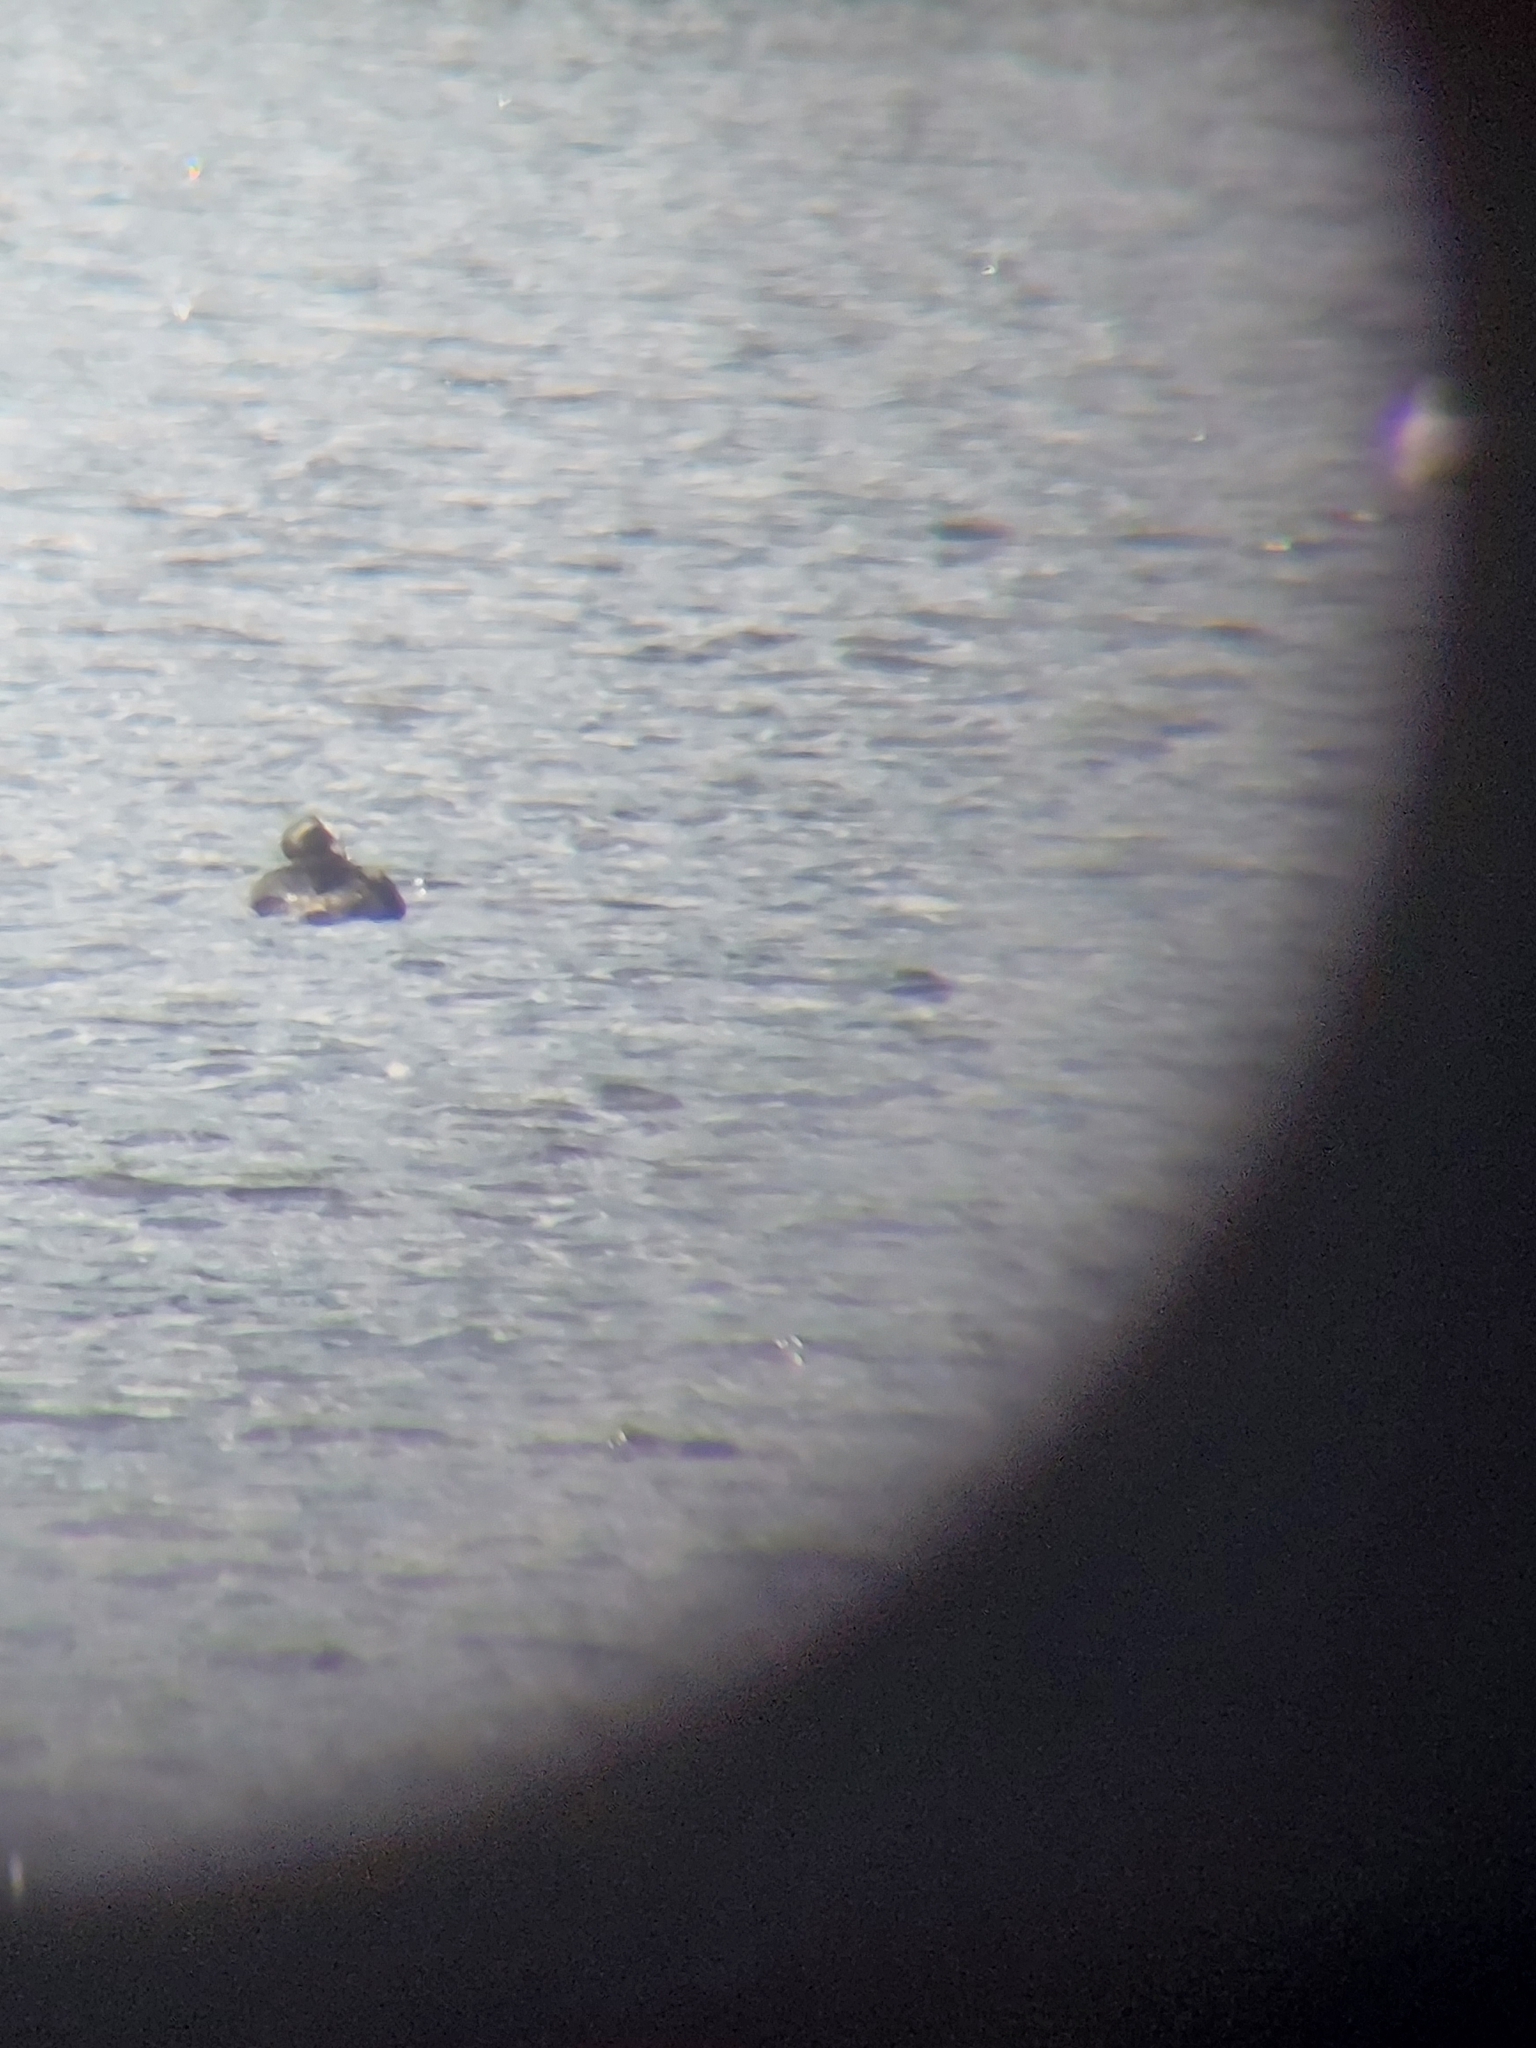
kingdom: Animalia
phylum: Chordata
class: Aves
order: Podicipediformes
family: Podicipedidae
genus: Podiceps
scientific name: Podiceps grisegena
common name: Red-necked grebe
